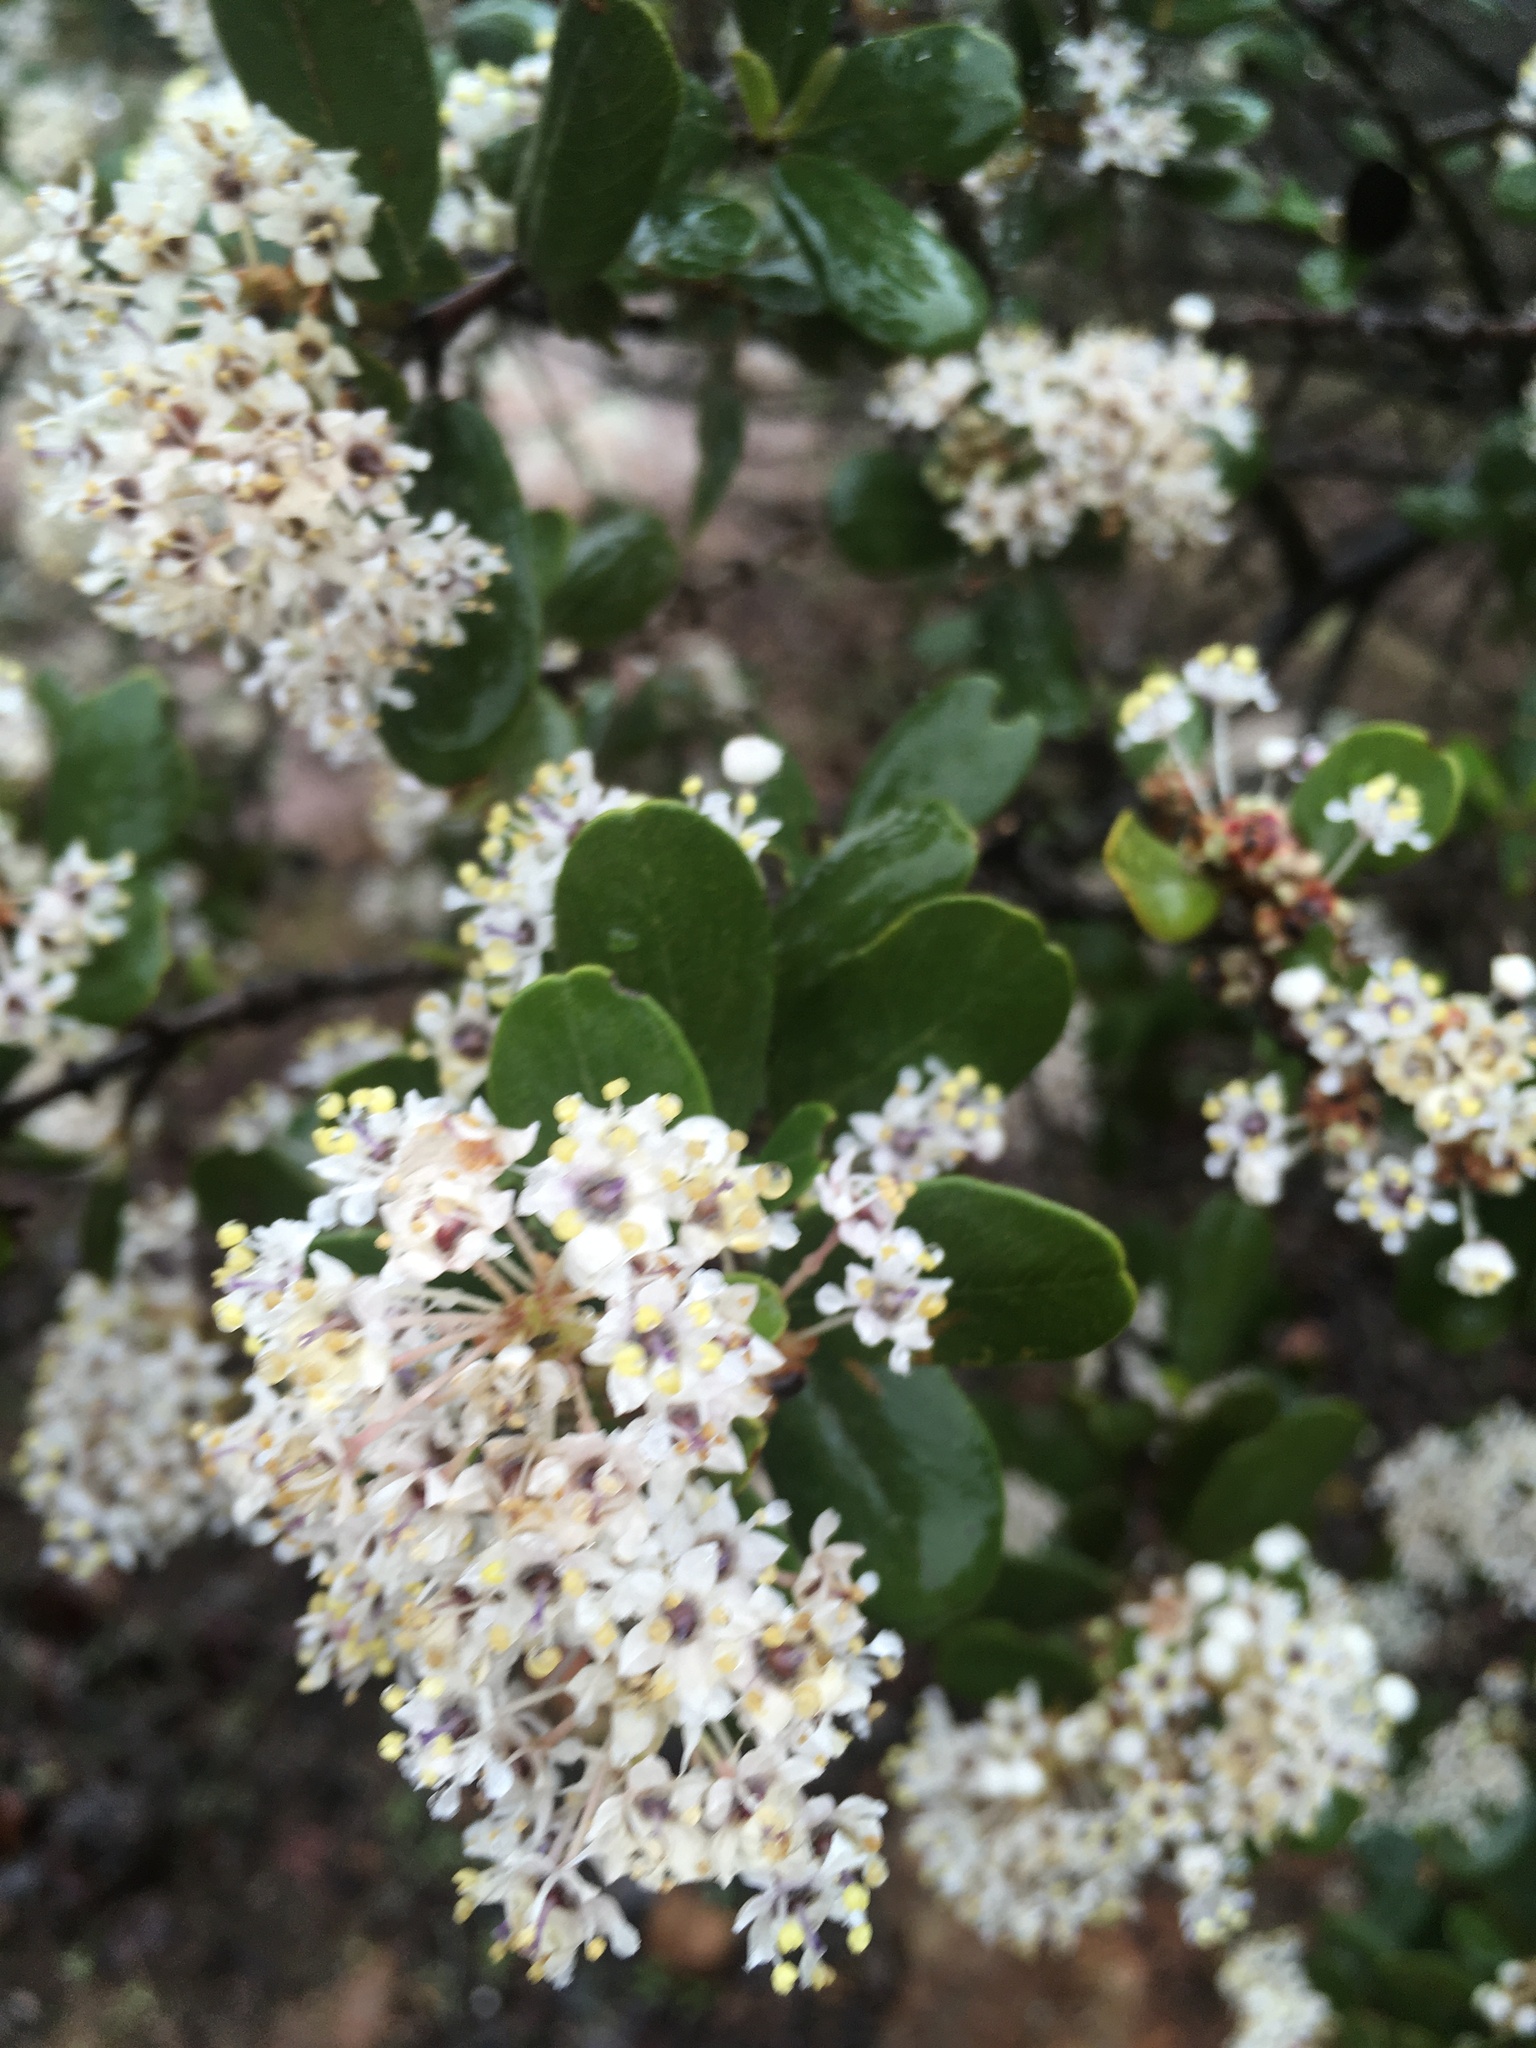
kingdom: Plantae
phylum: Tracheophyta
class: Magnoliopsida
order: Rosales
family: Rhamnaceae
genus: Ceanothus
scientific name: Ceanothus megacarpus
